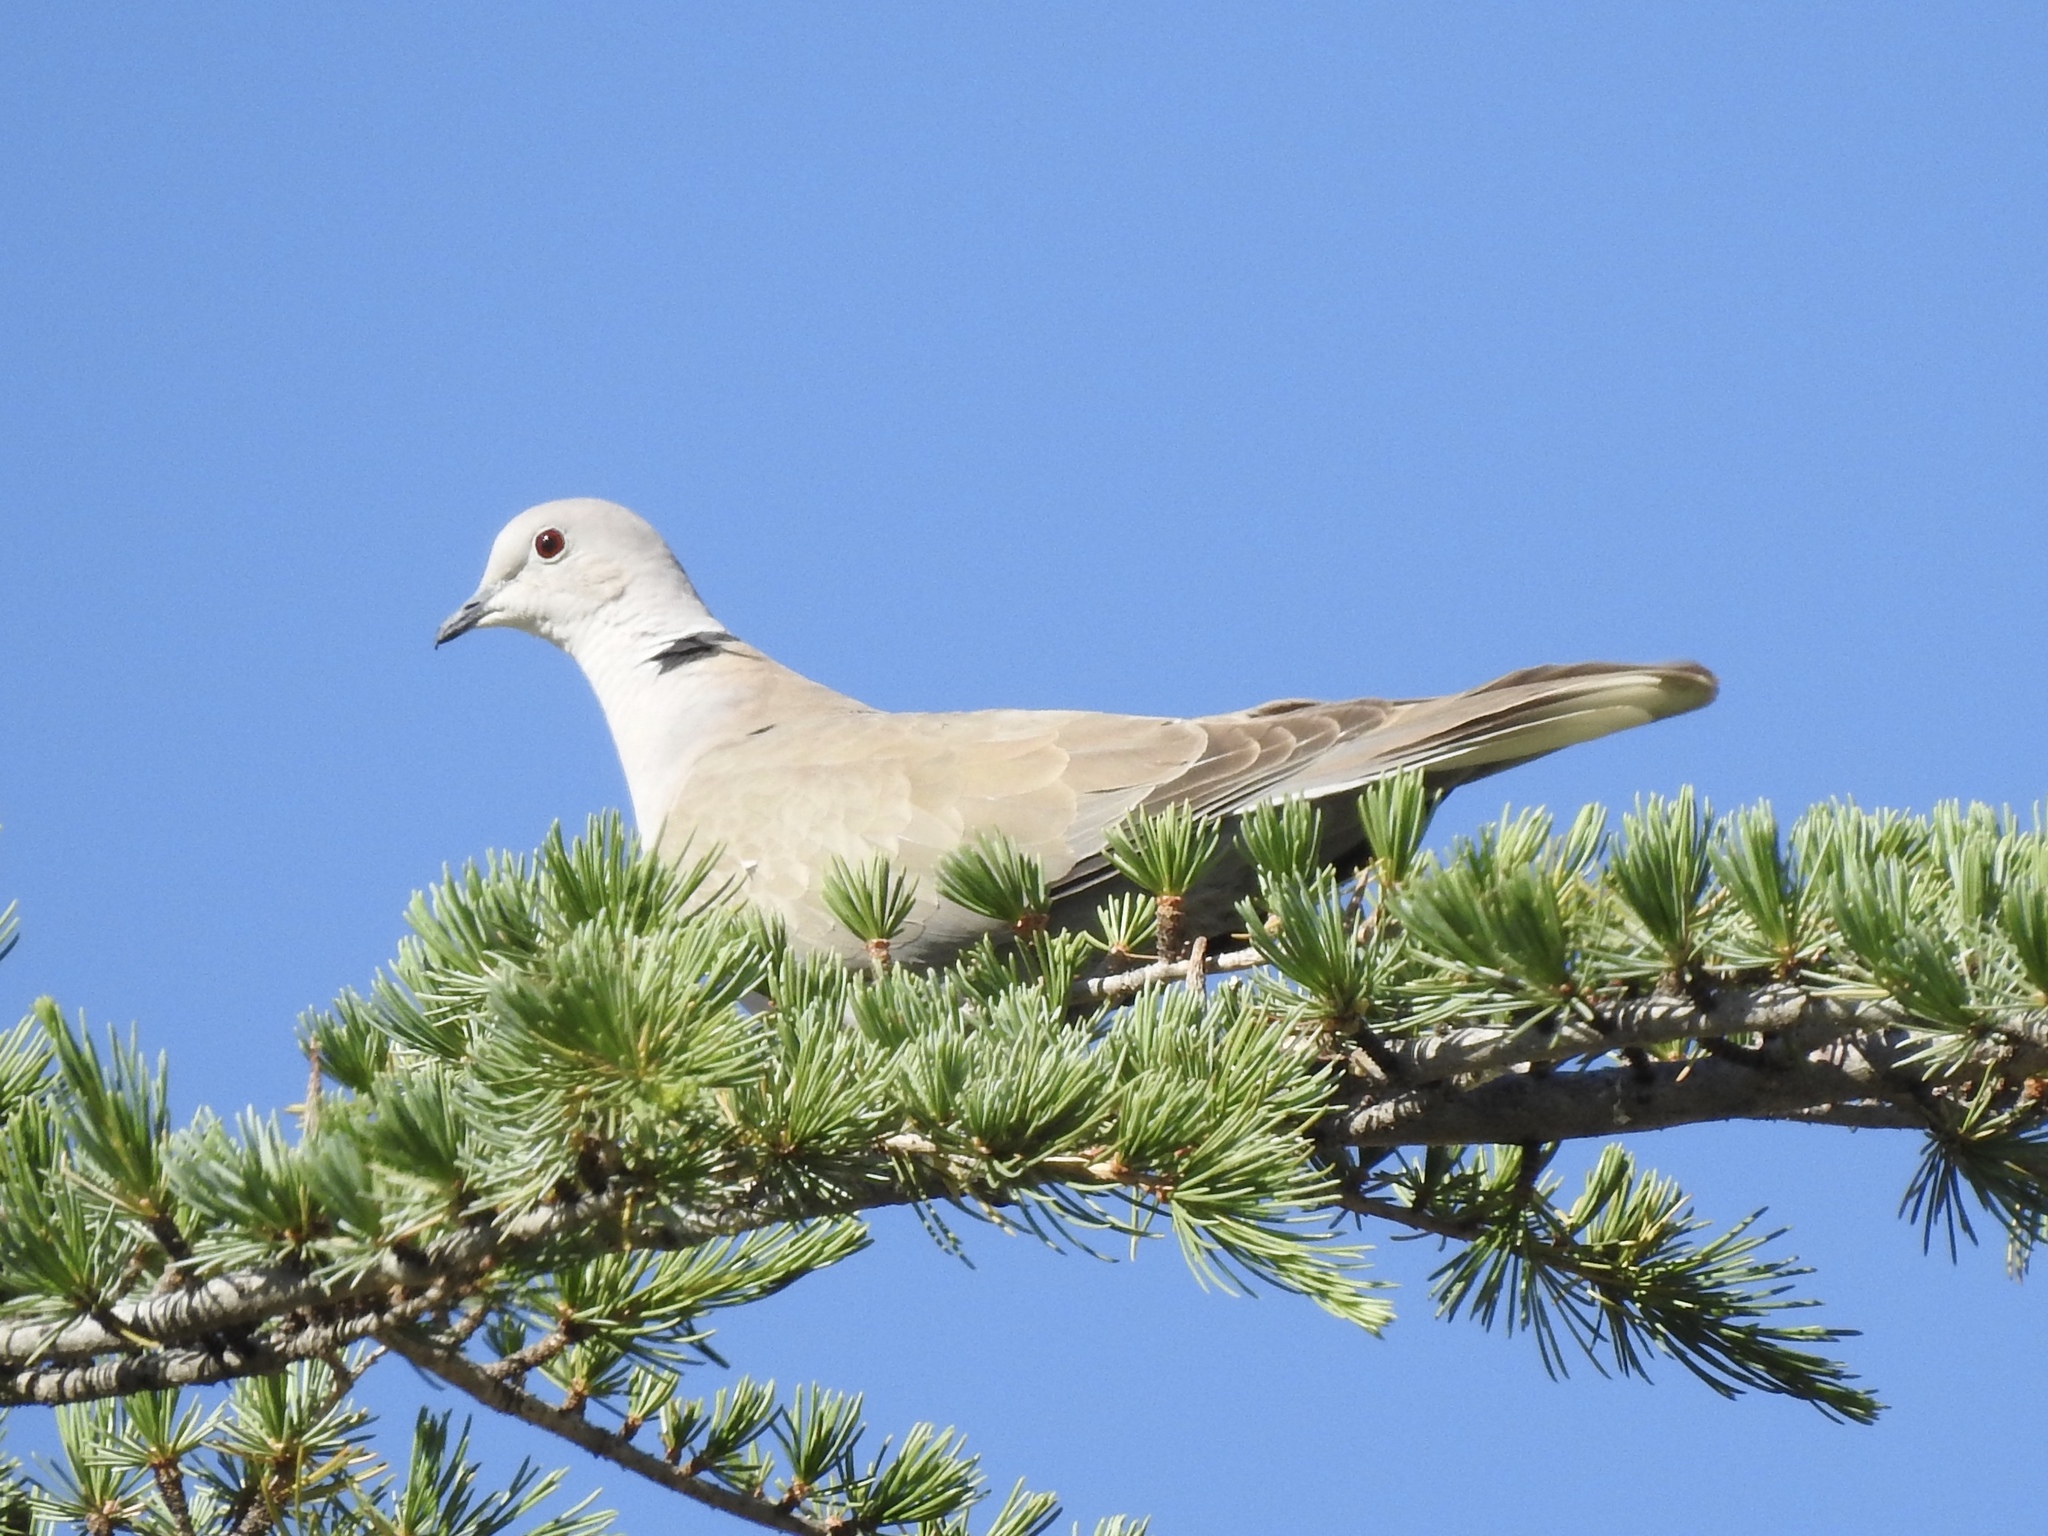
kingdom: Animalia
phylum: Chordata
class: Aves
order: Columbiformes
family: Columbidae
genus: Streptopelia
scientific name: Streptopelia decaocto
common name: Eurasian collared dove
